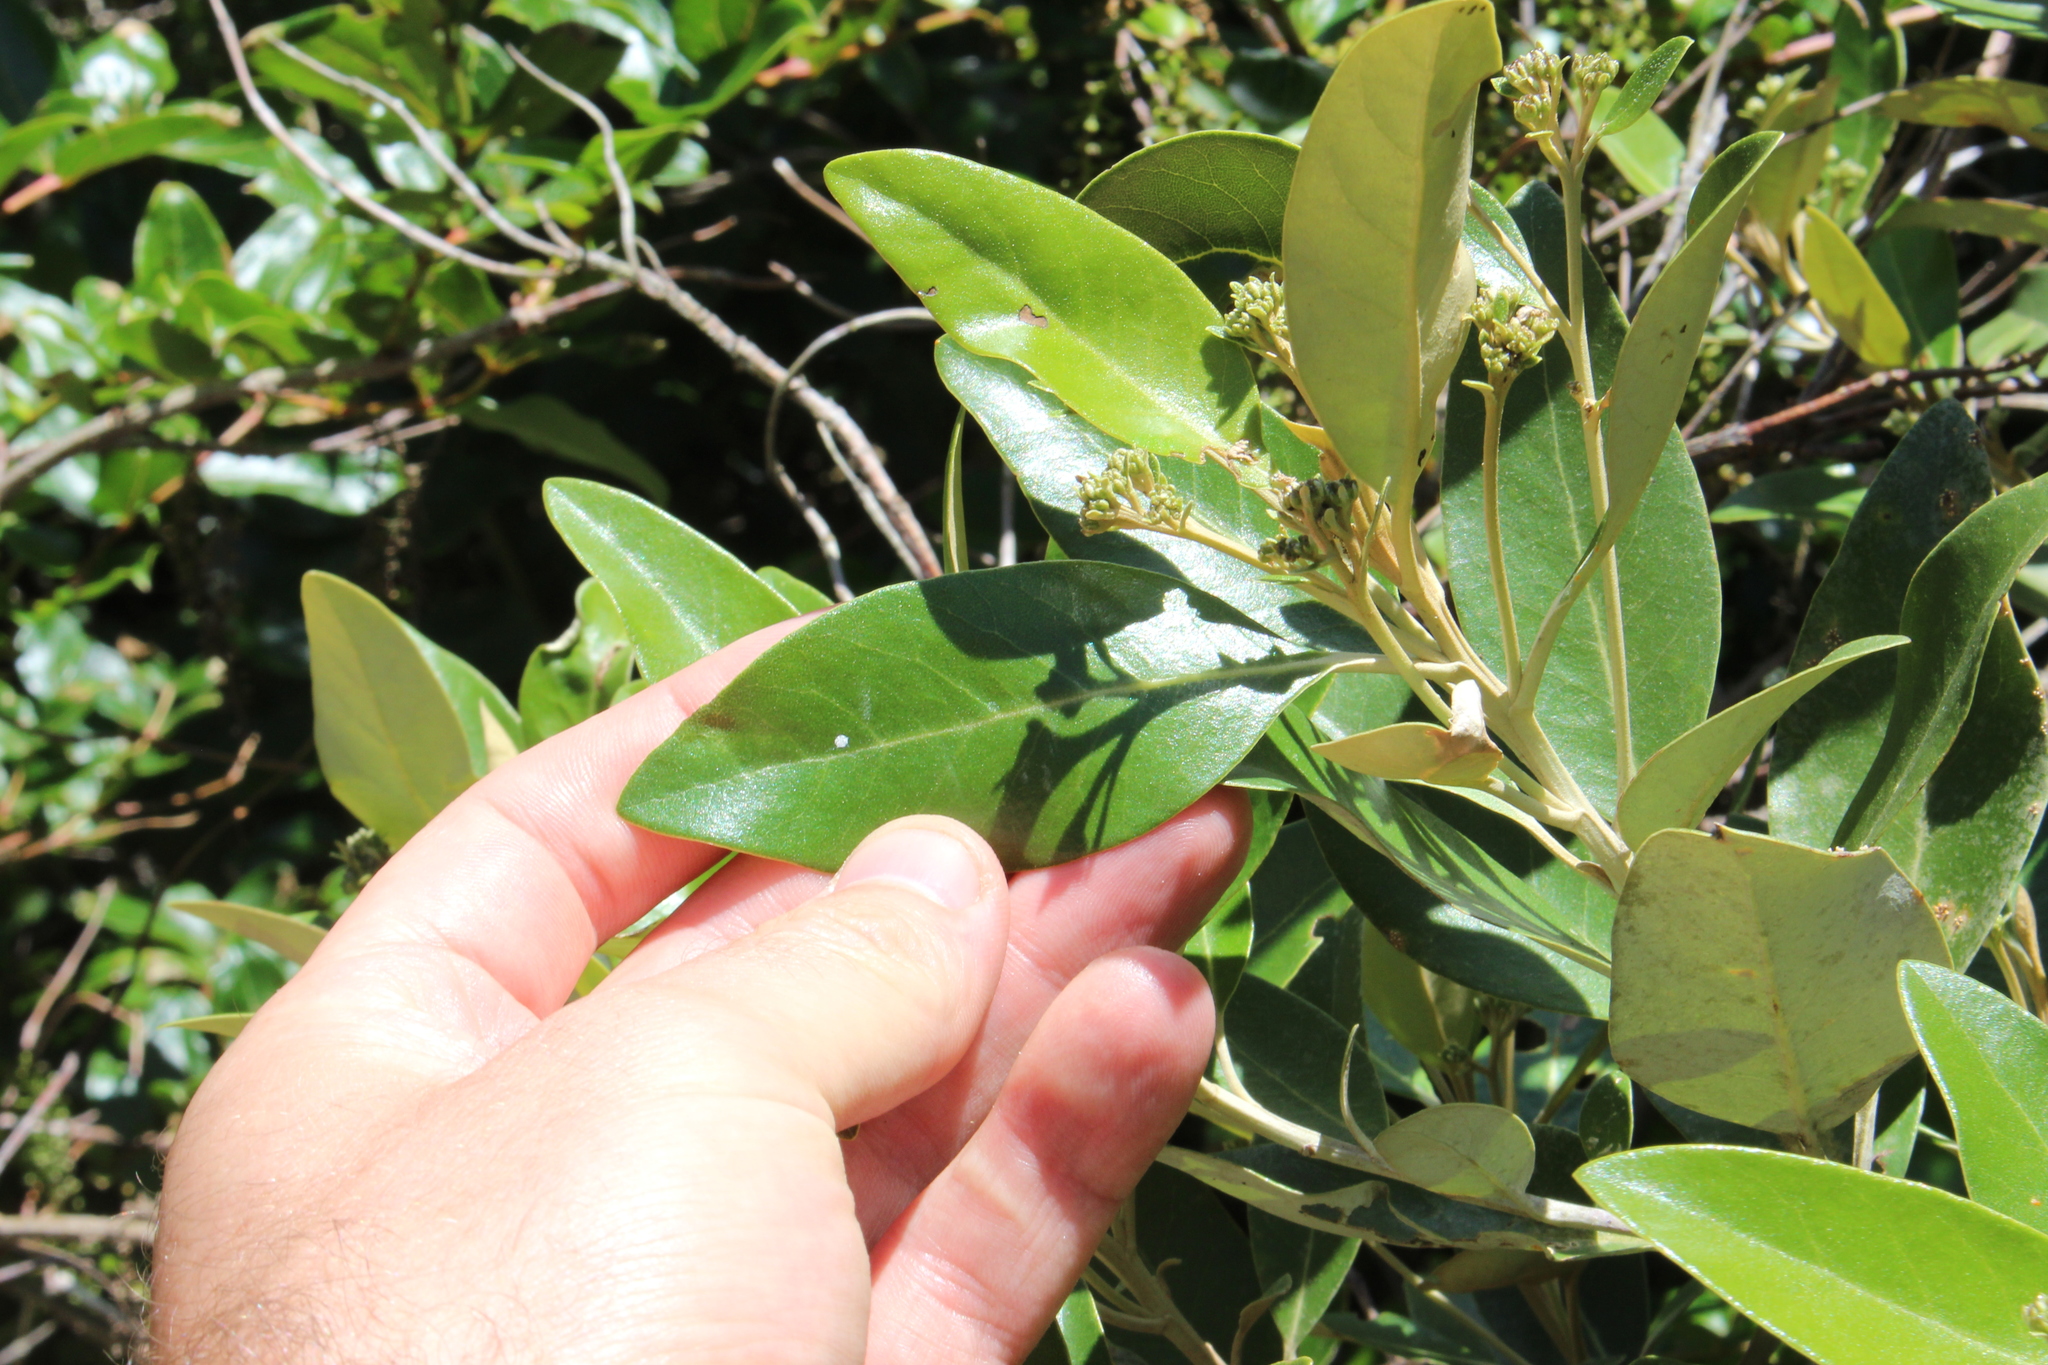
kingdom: Plantae
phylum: Tracheophyta
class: Magnoliopsida
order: Asterales
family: Asteraceae
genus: Olearia
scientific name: Olearia avicenniifolia
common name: Mangrove-leaf daisybush
